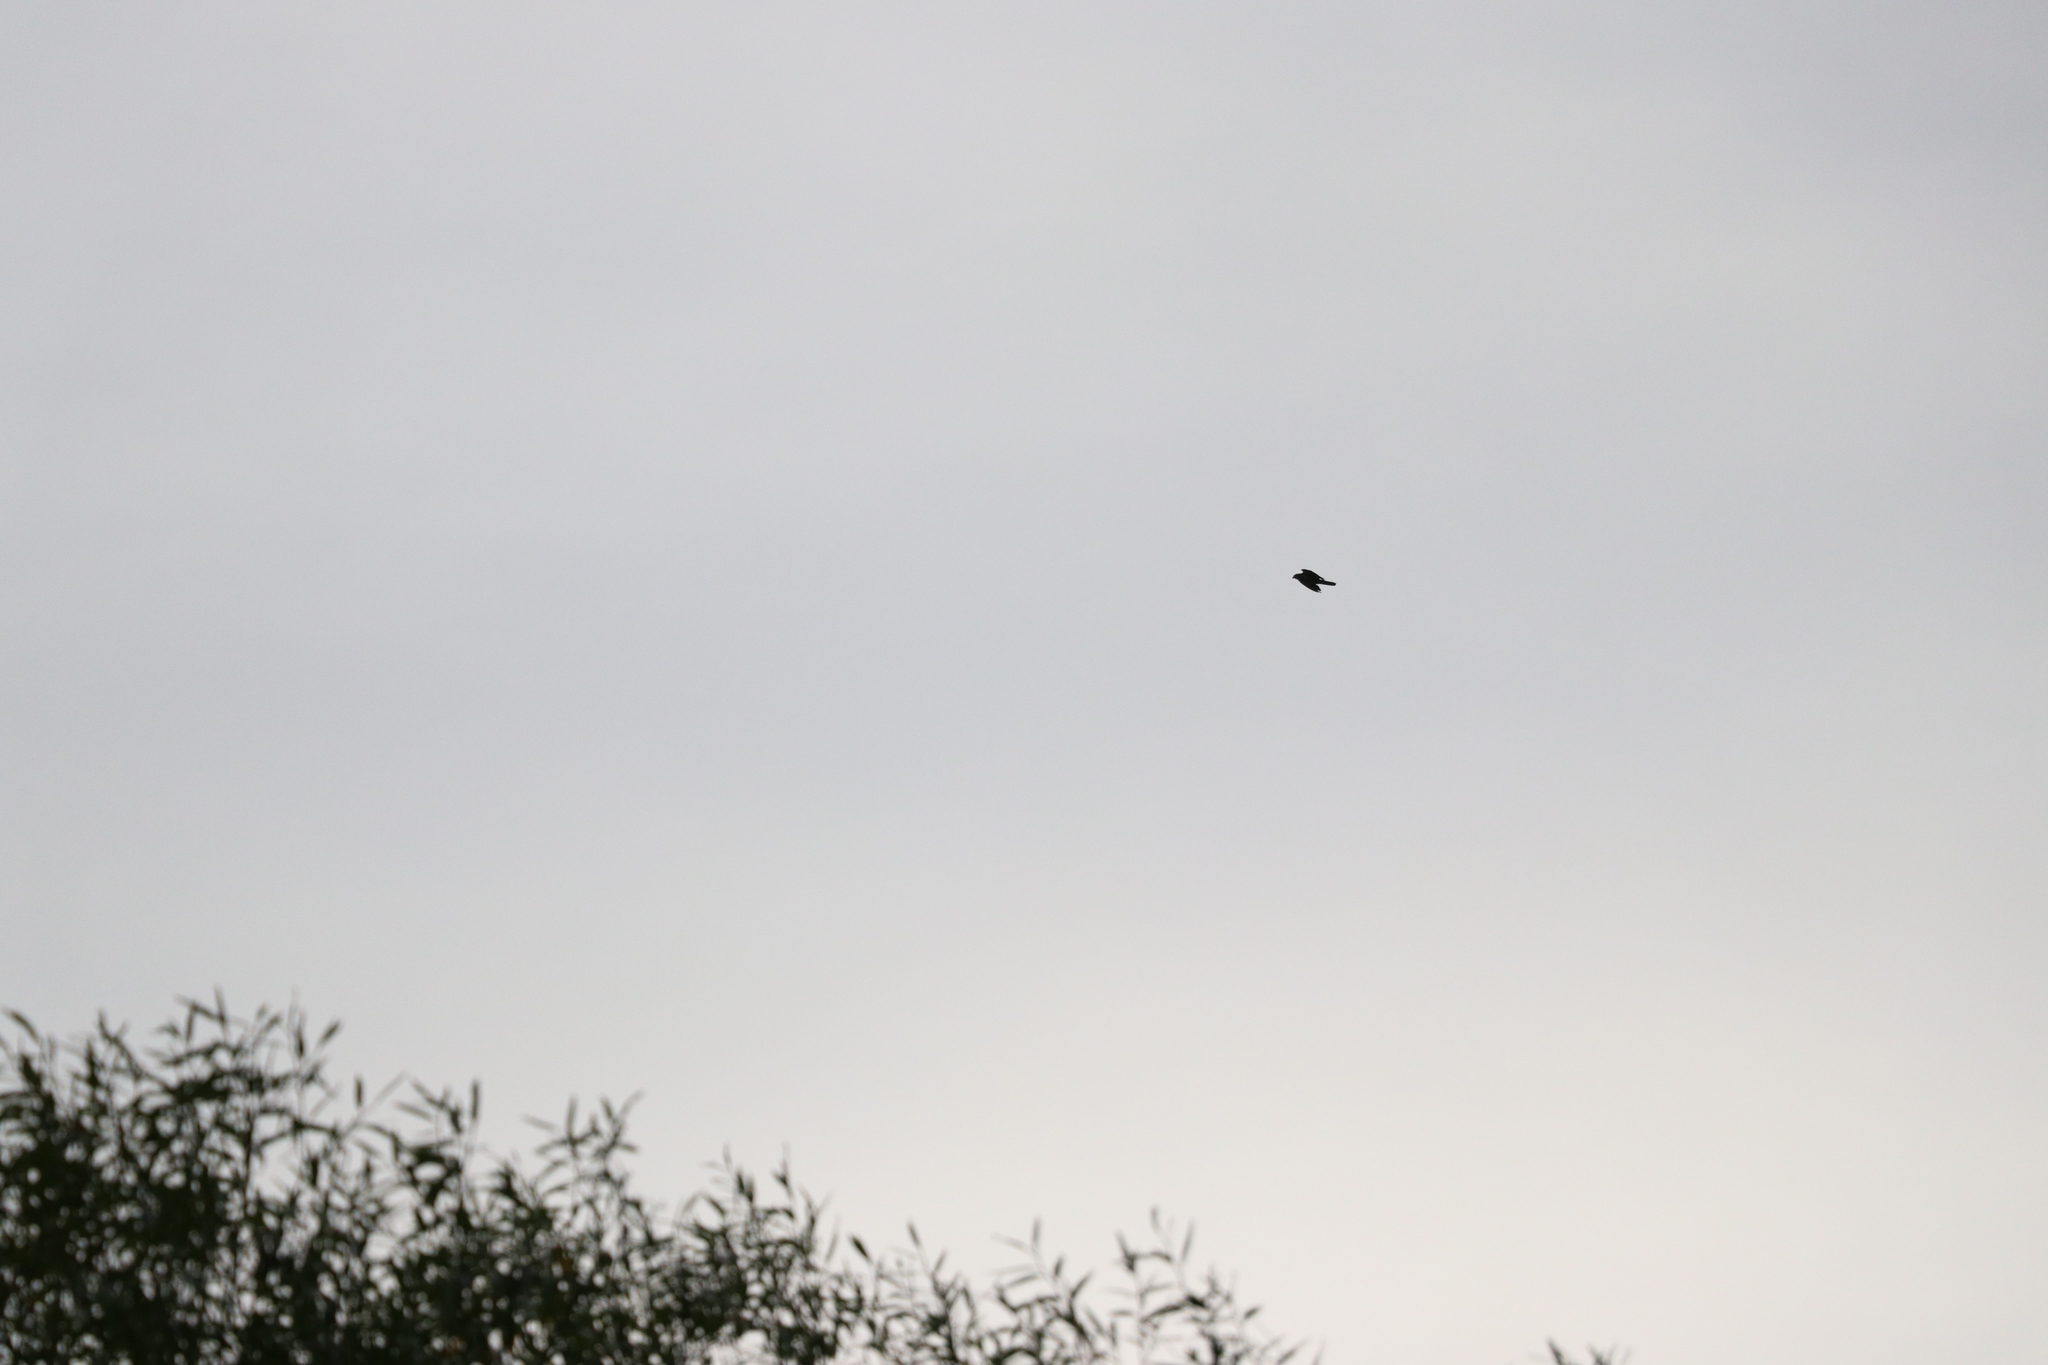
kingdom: Animalia
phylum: Chordata
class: Aves
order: Falconiformes
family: Falconidae
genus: Falco
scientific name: Falco novaeseelandiae
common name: New zealand falcon
